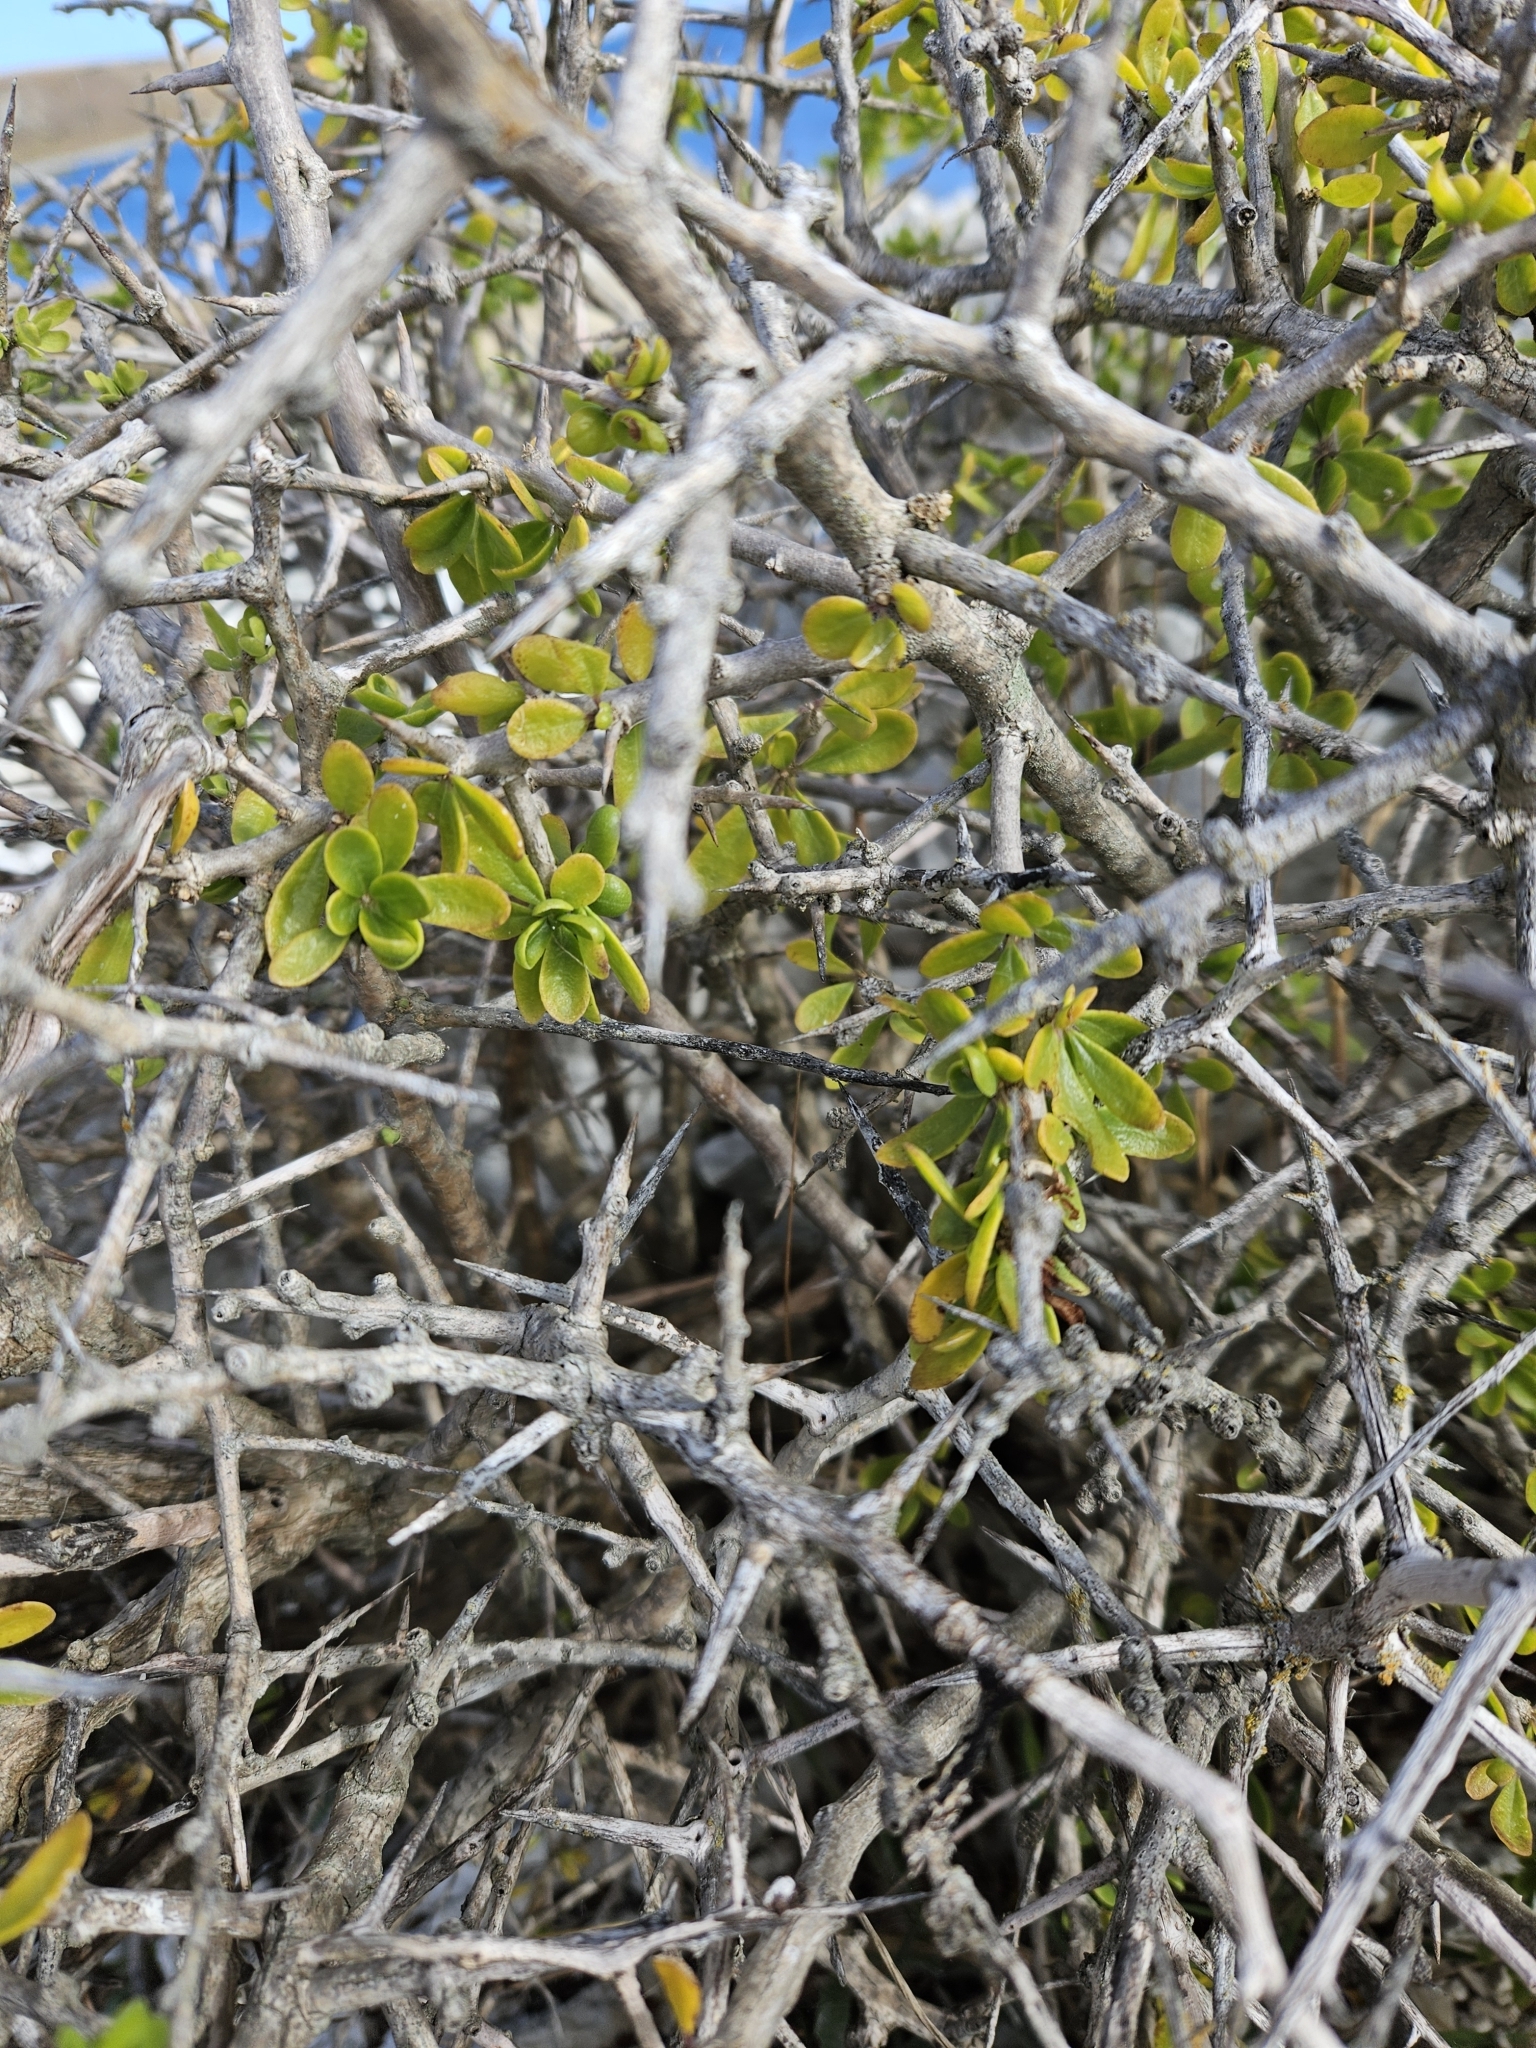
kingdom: Plantae
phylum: Tracheophyta
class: Magnoliopsida
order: Solanales
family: Solanaceae
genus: Lycium
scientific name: Lycium ferocissimum
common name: African boxthorn
